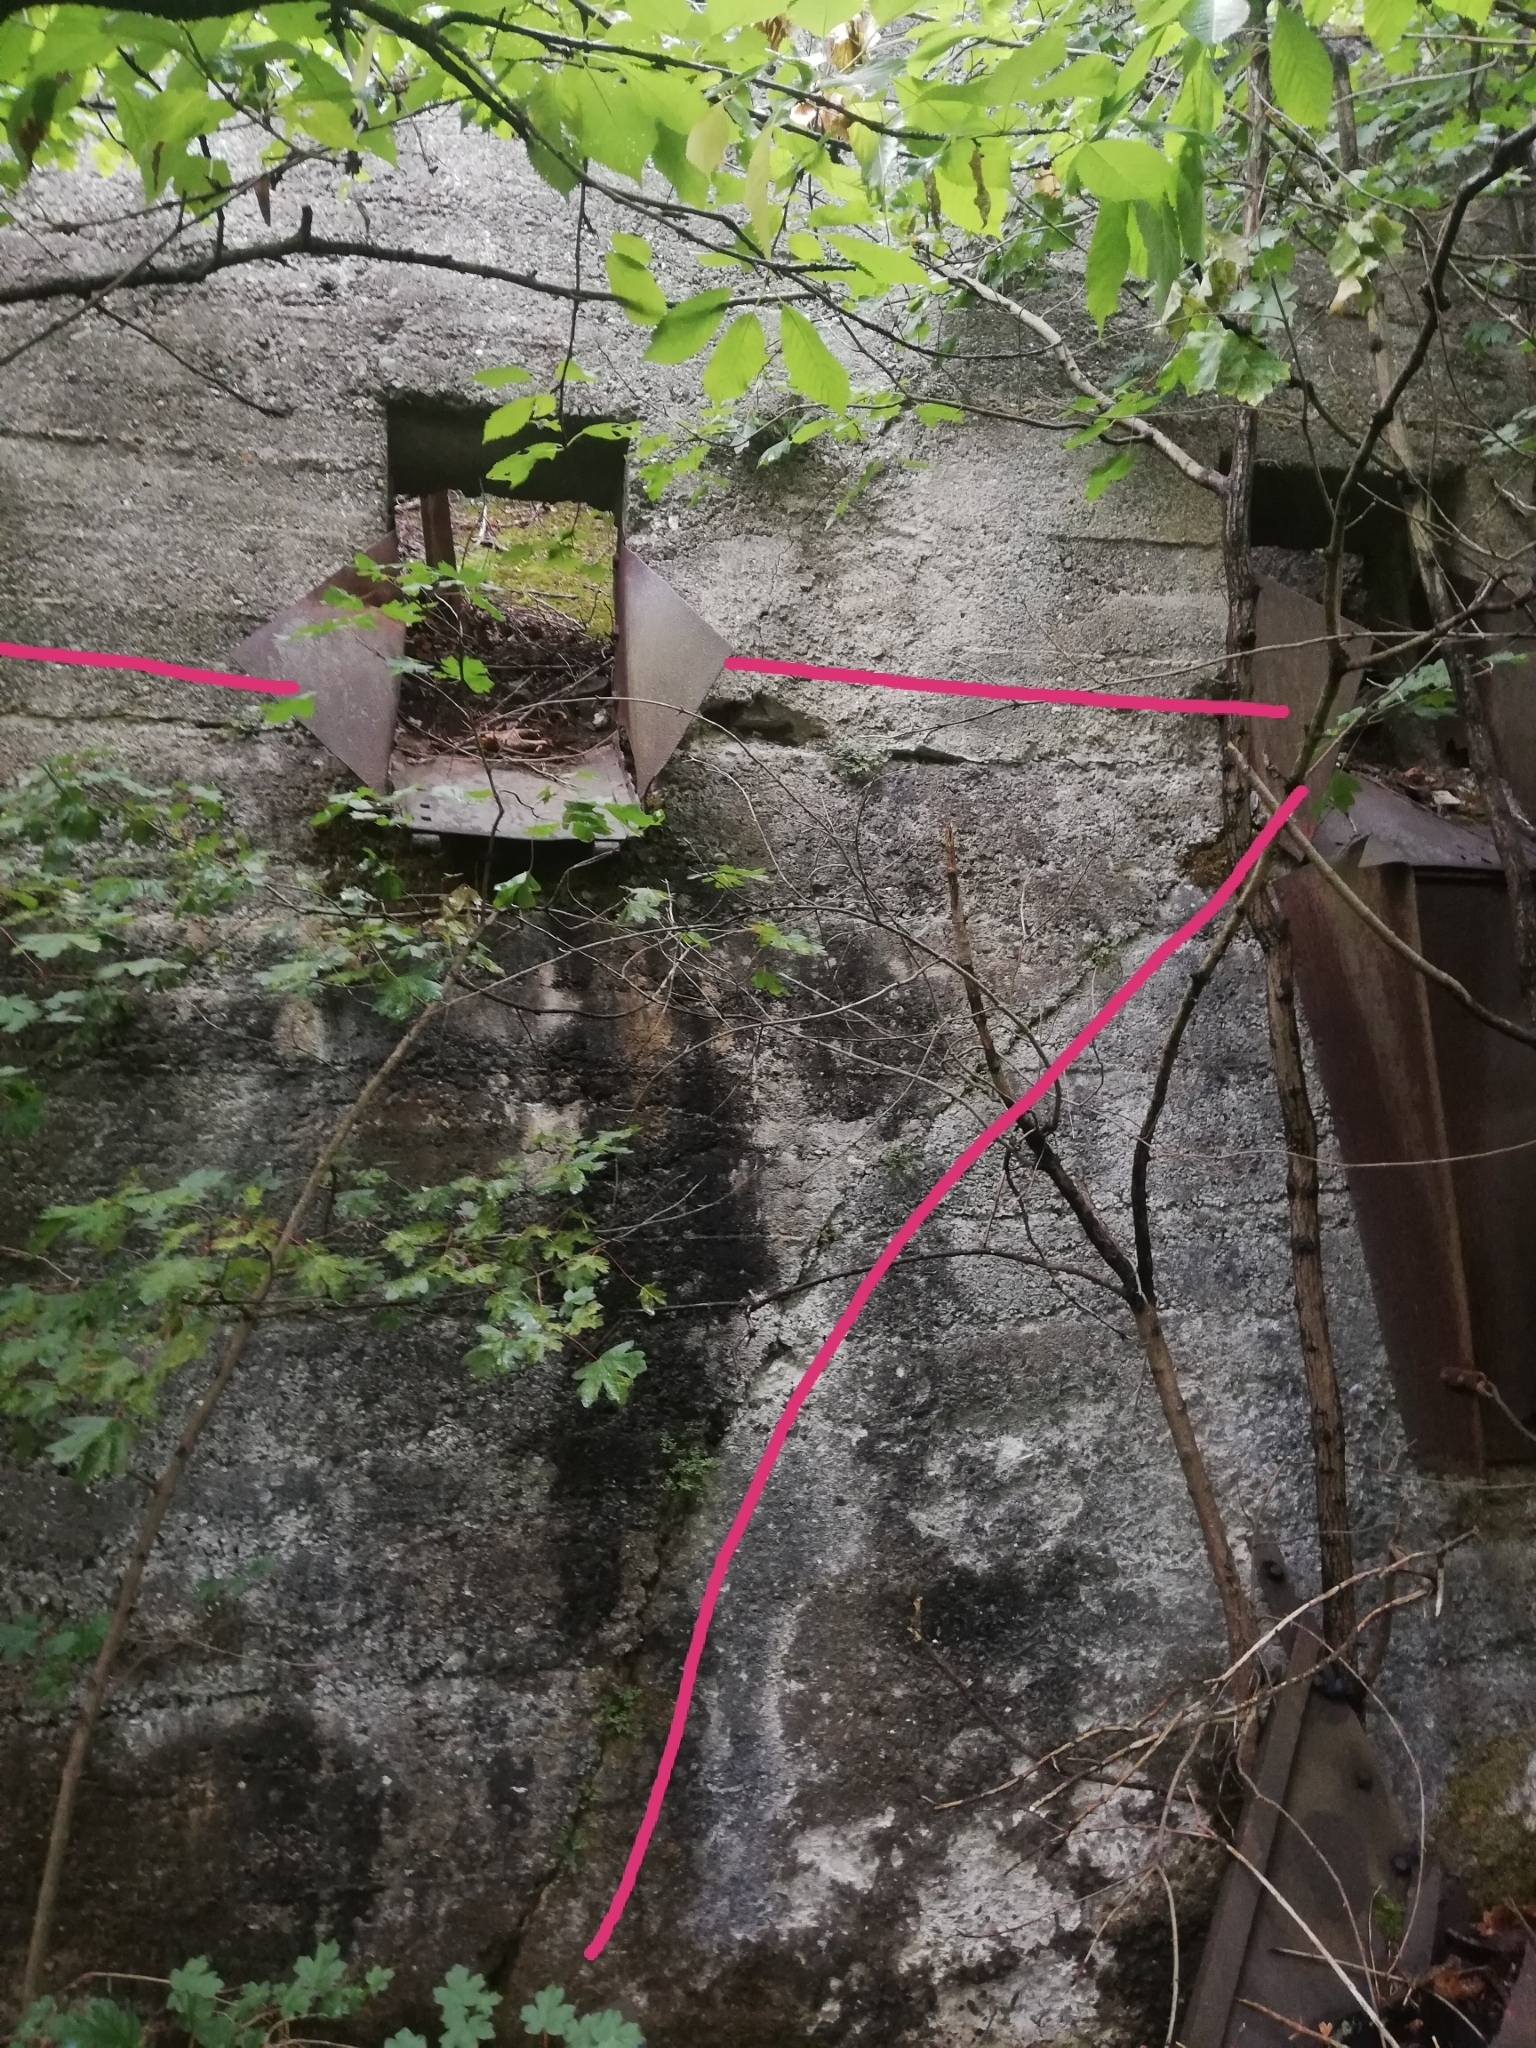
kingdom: Plantae
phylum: Tracheophyta
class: Polypodiopsida
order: Polypodiales
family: Aspleniaceae
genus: Asplenium
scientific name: Asplenium ruta-muraria
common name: Wall-rue
